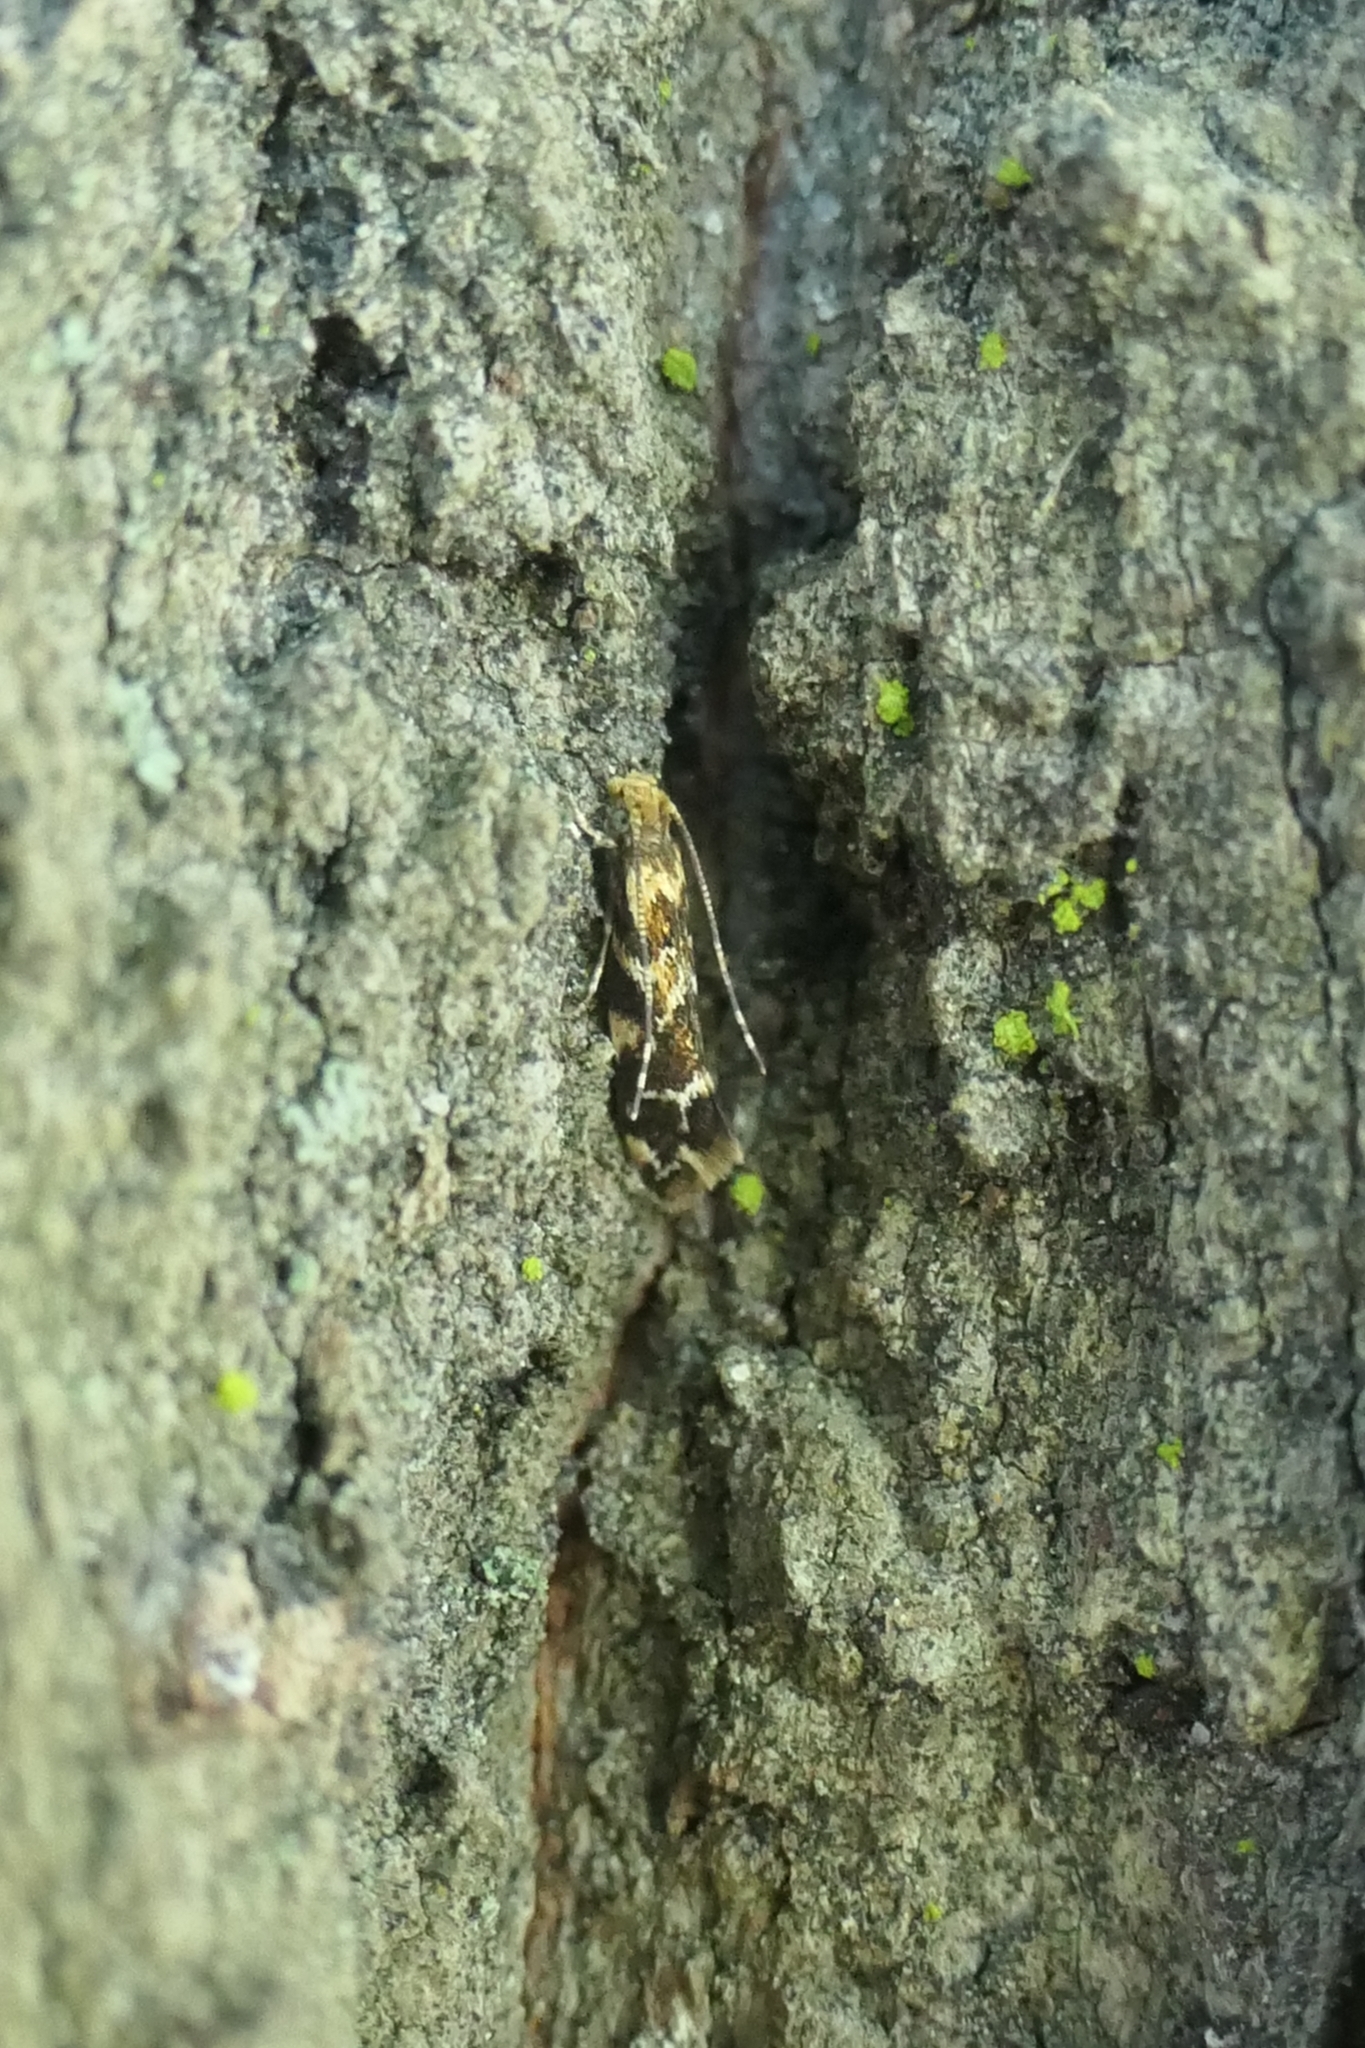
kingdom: Animalia
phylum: Arthropoda
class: Insecta
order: Lepidoptera
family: Dryadaulidae
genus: Dryadaula
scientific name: Dryadaula pactolia
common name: Cellar clothes
